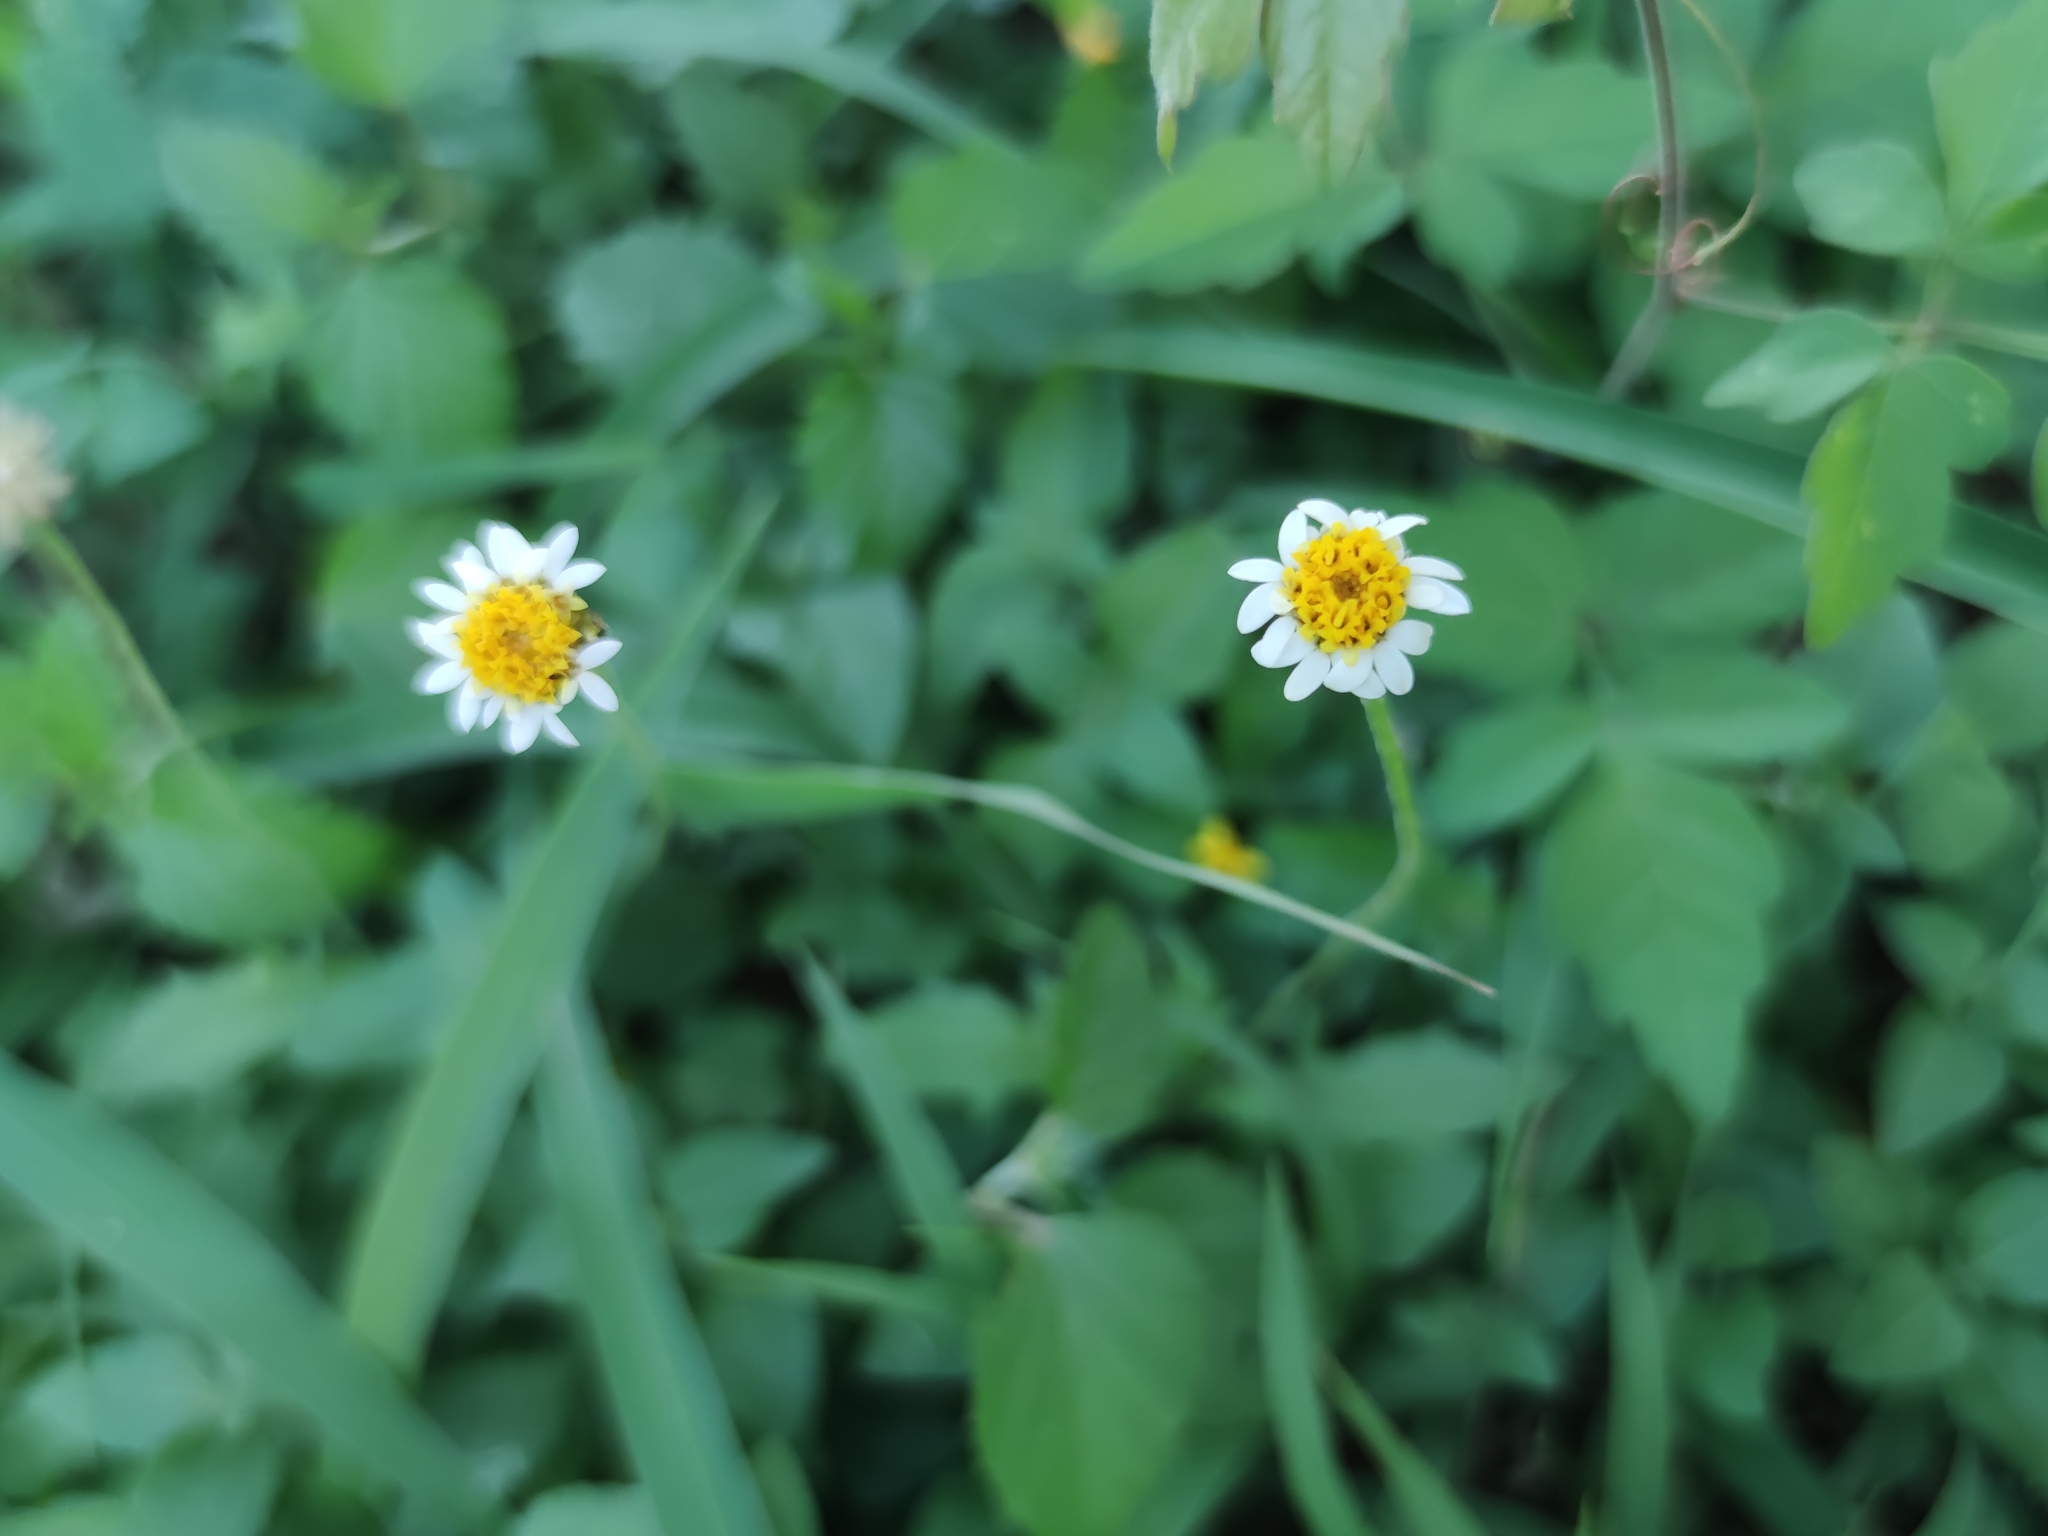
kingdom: Plantae
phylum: Tracheophyta
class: Magnoliopsida
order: Asterales
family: Asteraceae
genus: Tridax
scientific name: Tridax coronopifolia
